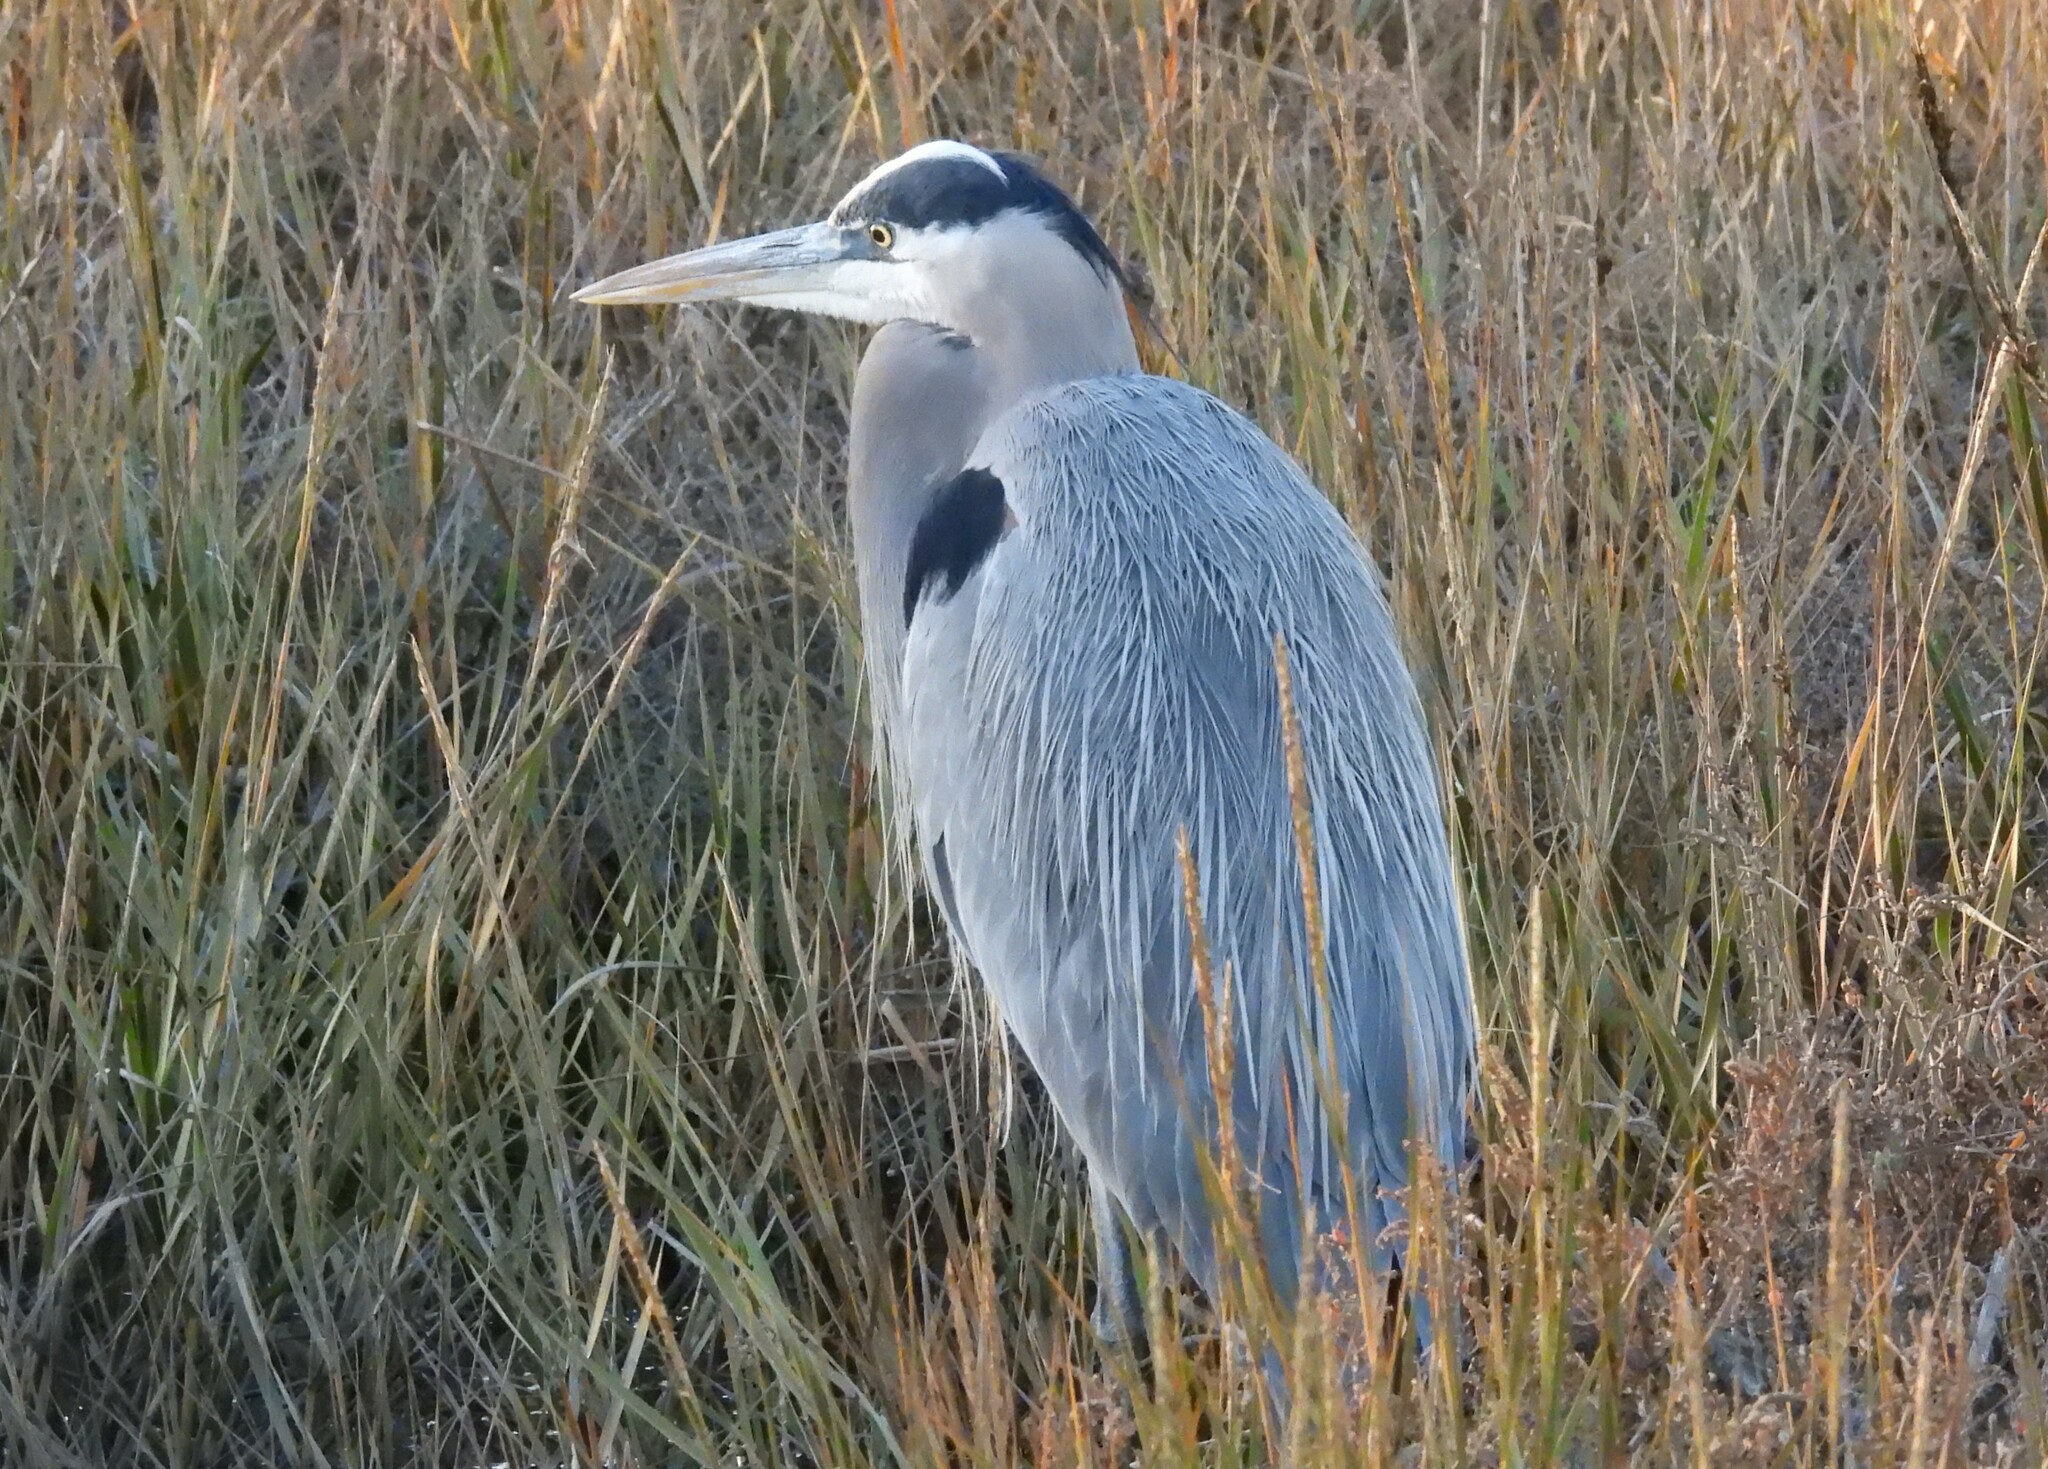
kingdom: Animalia
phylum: Chordata
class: Aves
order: Pelecaniformes
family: Ardeidae
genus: Ardea
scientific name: Ardea herodias
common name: Great blue heron
